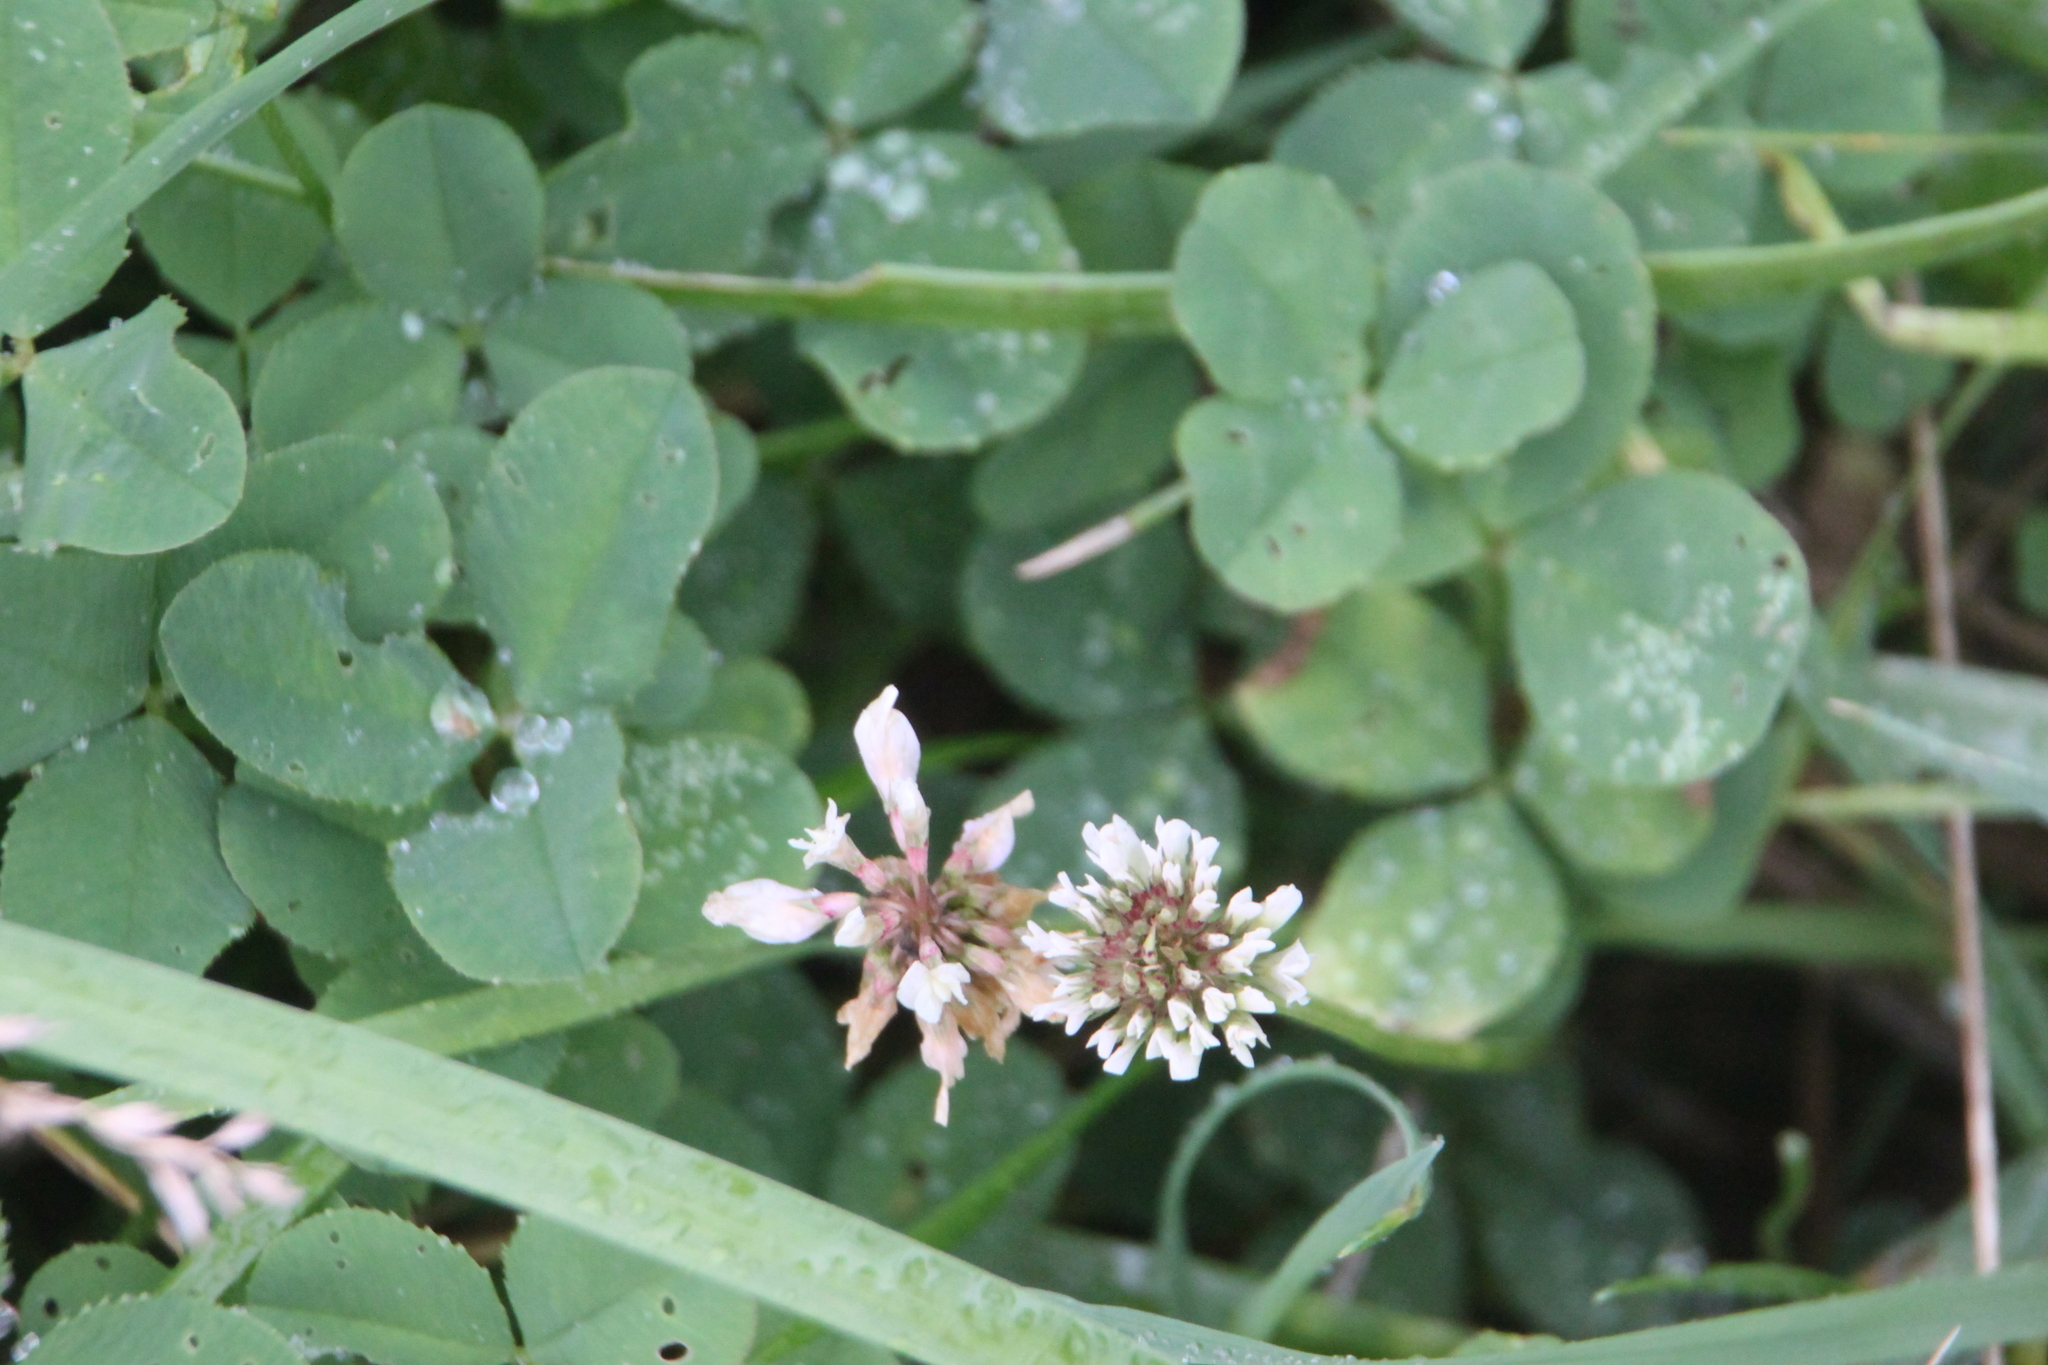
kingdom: Plantae
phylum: Tracheophyta
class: Magnoliopsida
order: Fabales
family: Fabaceae
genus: Trifolium
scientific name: Trifolium repens
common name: White clover
